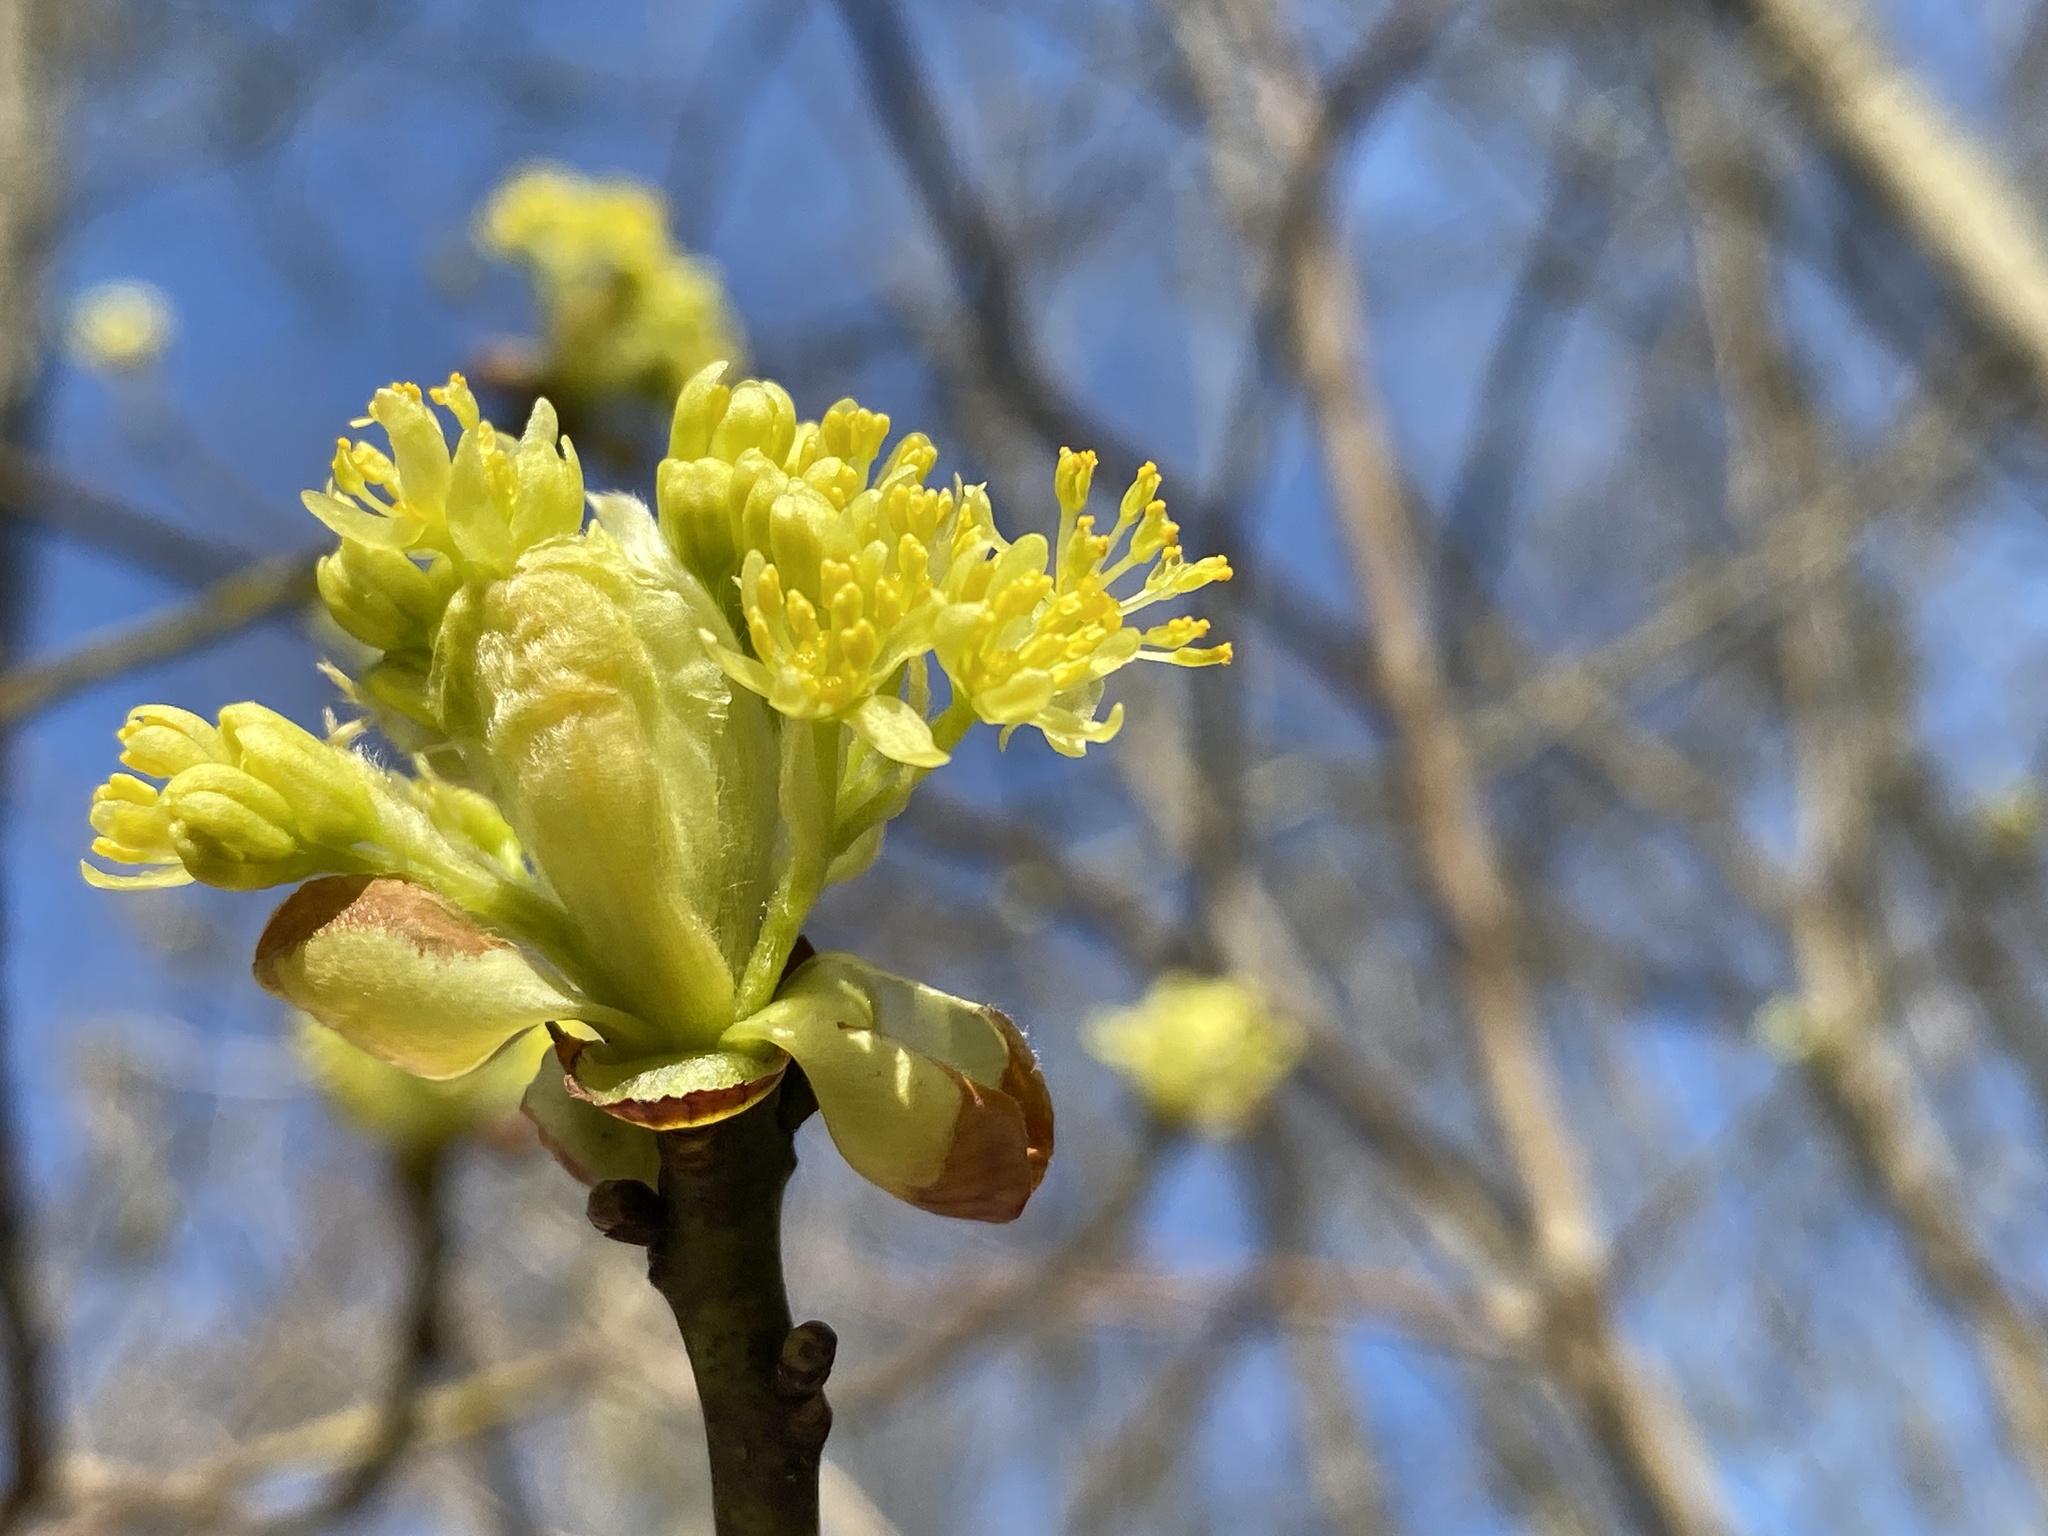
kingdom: Plantae
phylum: Tracheophyta
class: Magnoliopsida
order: Laurales
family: Lauraceae
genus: Sassafras
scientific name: Sassafras albidum
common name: Sassafras
